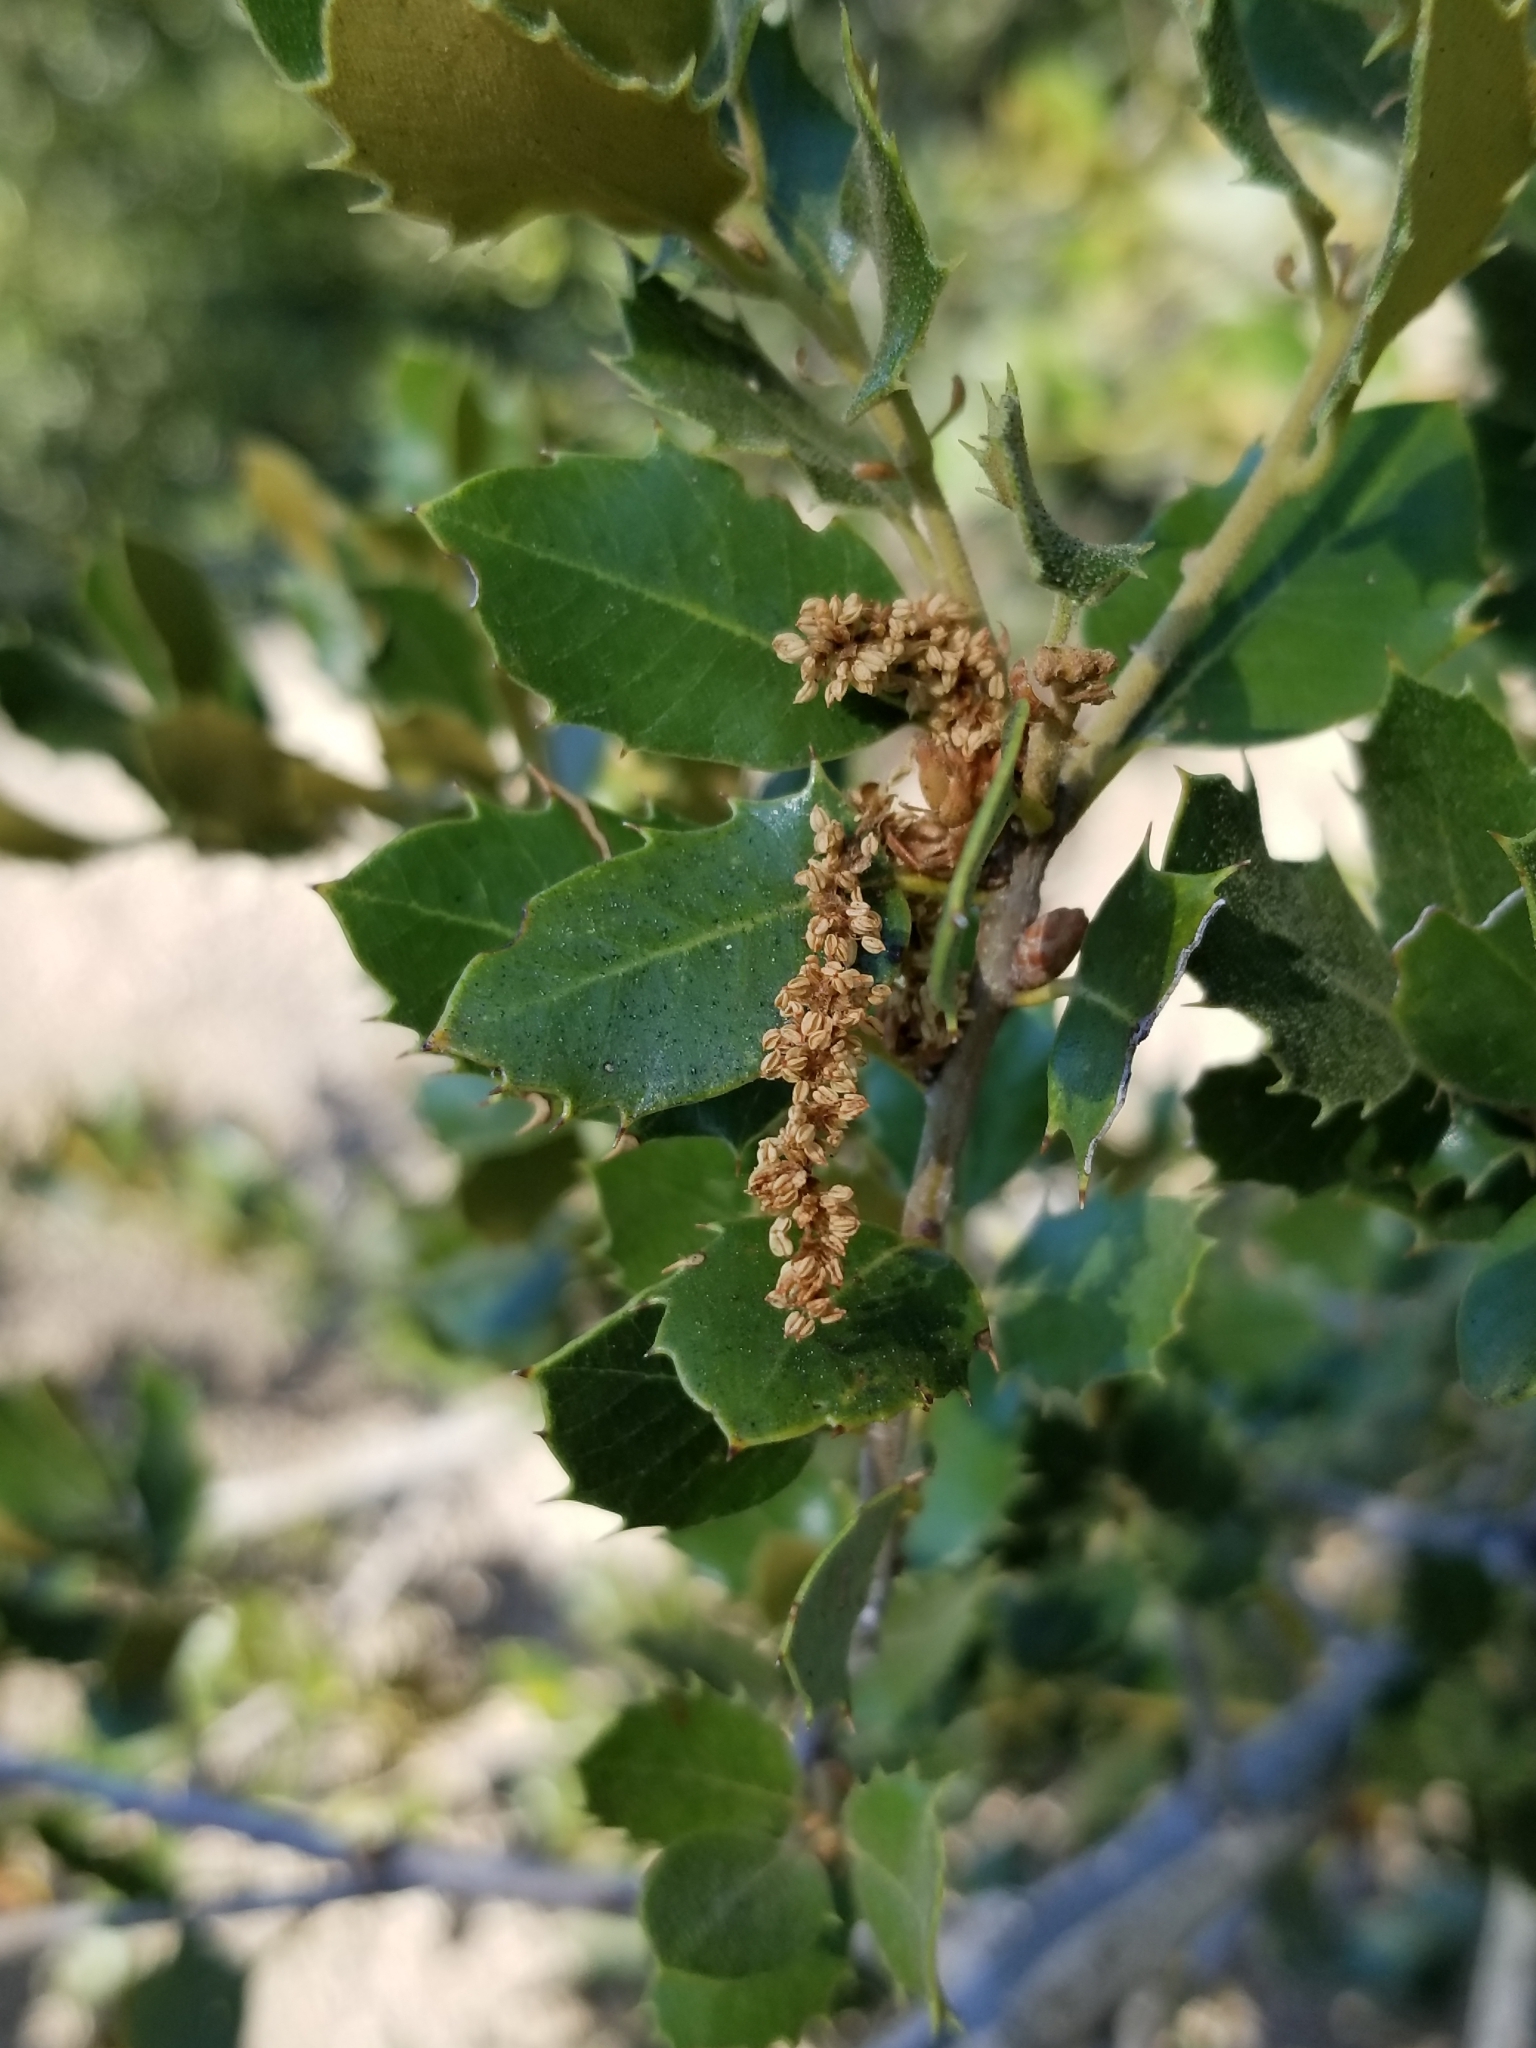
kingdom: Plantae
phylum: Tracheophyta
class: Magnoliopsida
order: Fagales
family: Fagaceae
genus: Quercus
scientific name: Quercus chrysolepis
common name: Canyon live oak
